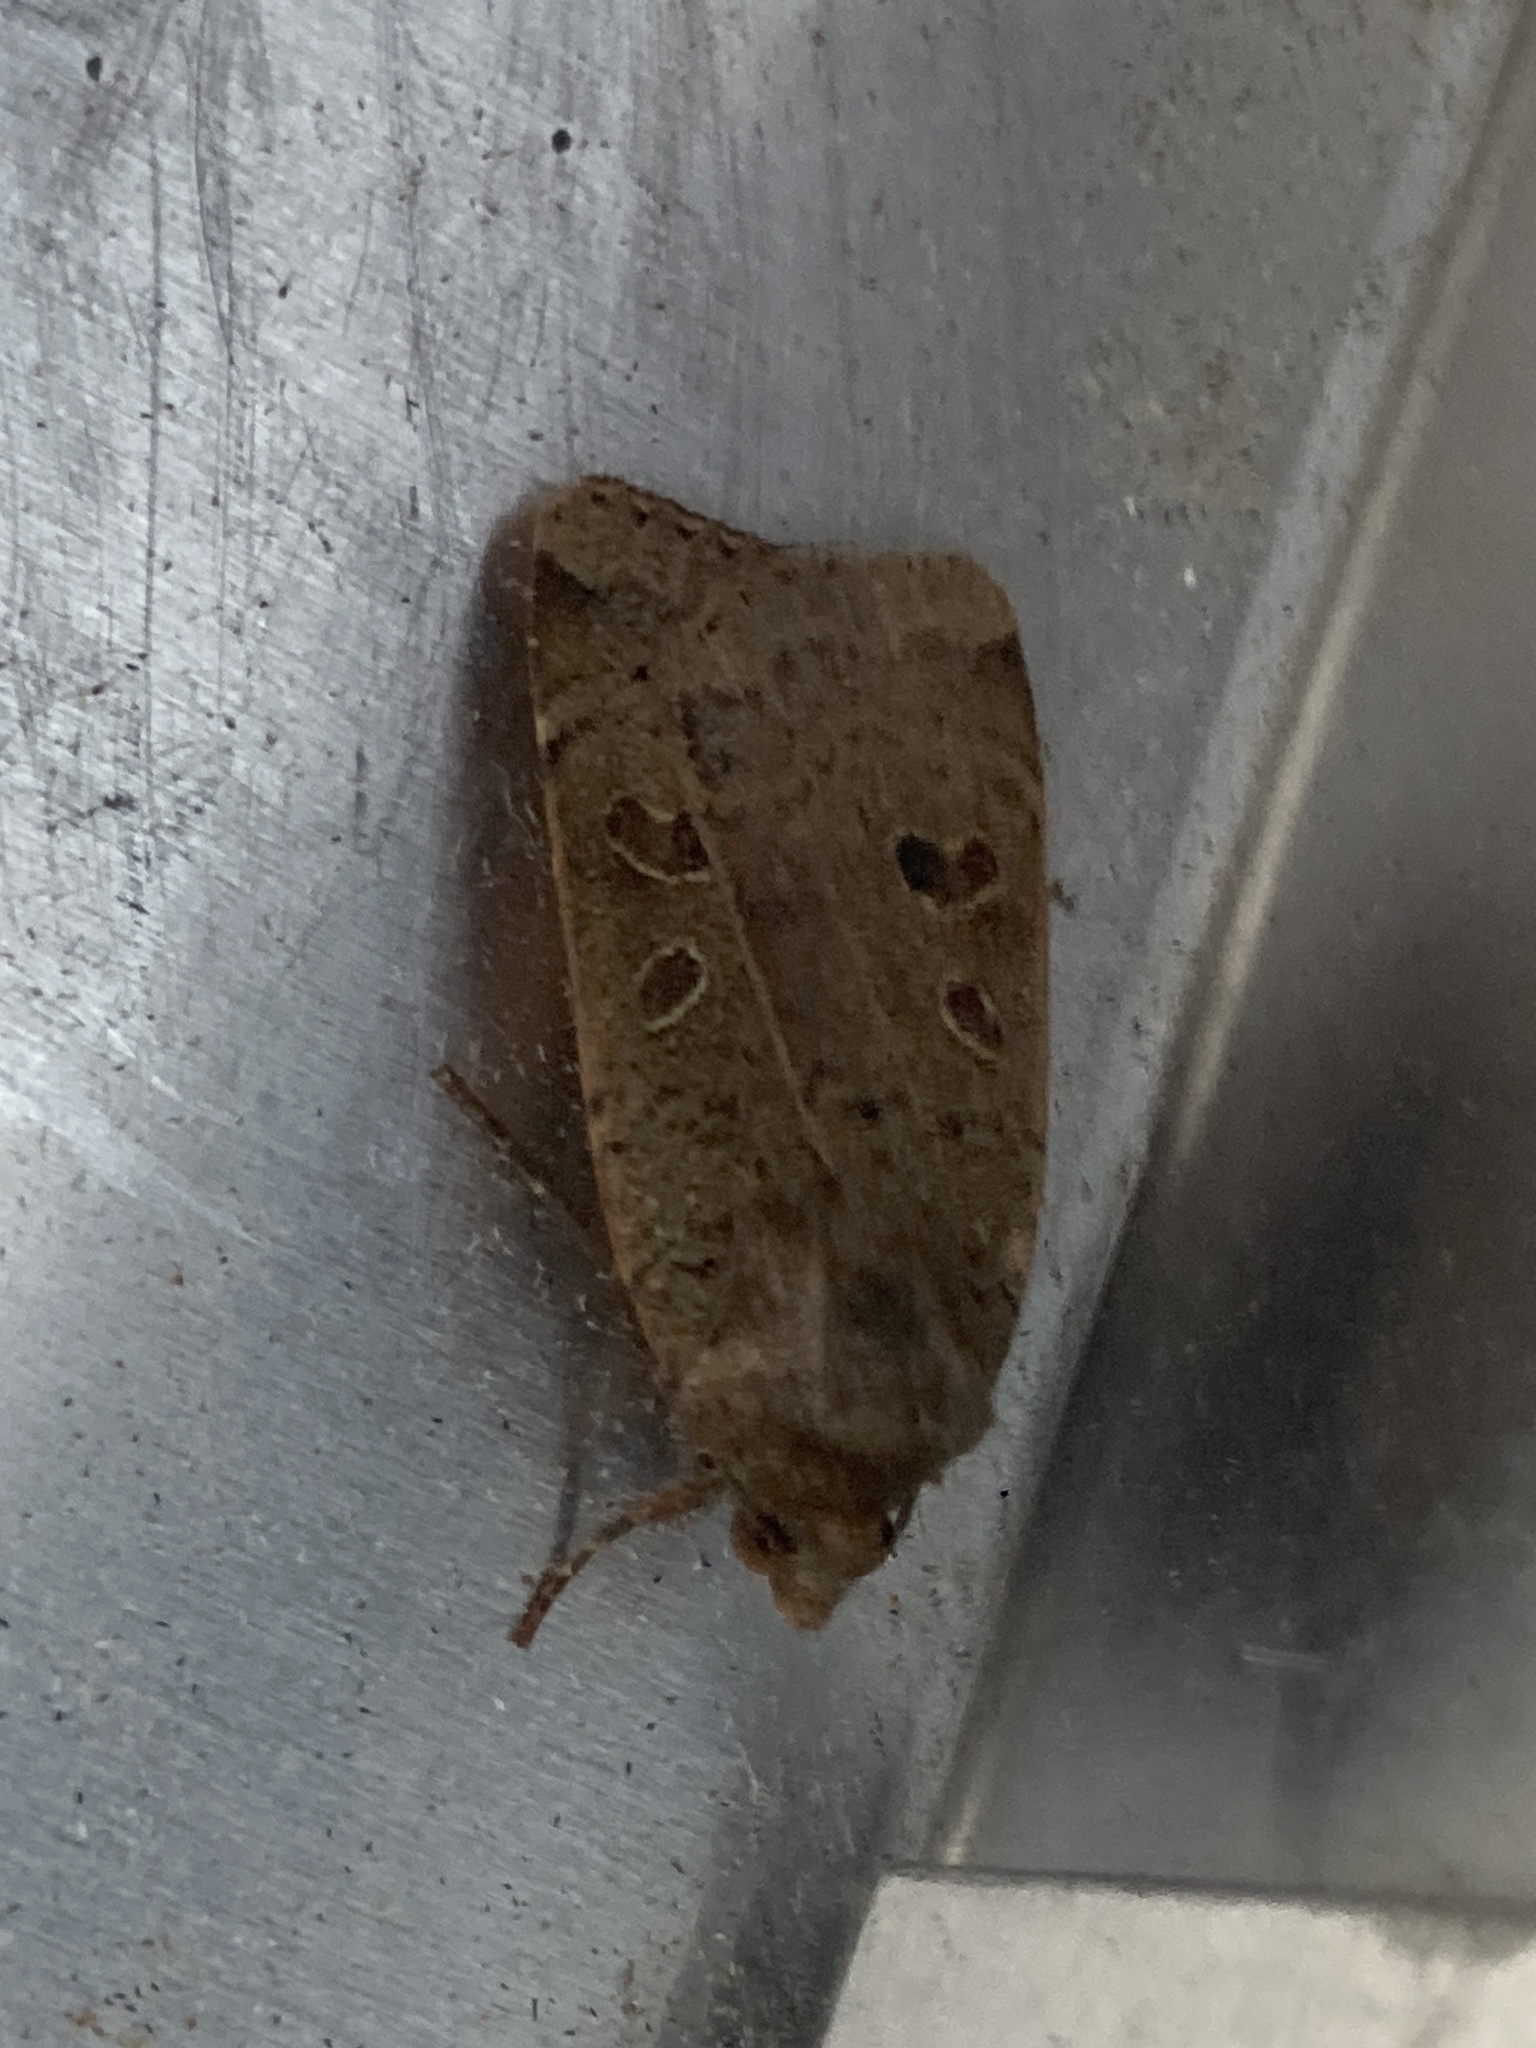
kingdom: Animalia
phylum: Arthropoda
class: Insecta
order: Lepidoptera
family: Noctuidae
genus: Noctua
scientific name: Noctua comes
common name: Lesser yellow underwing
